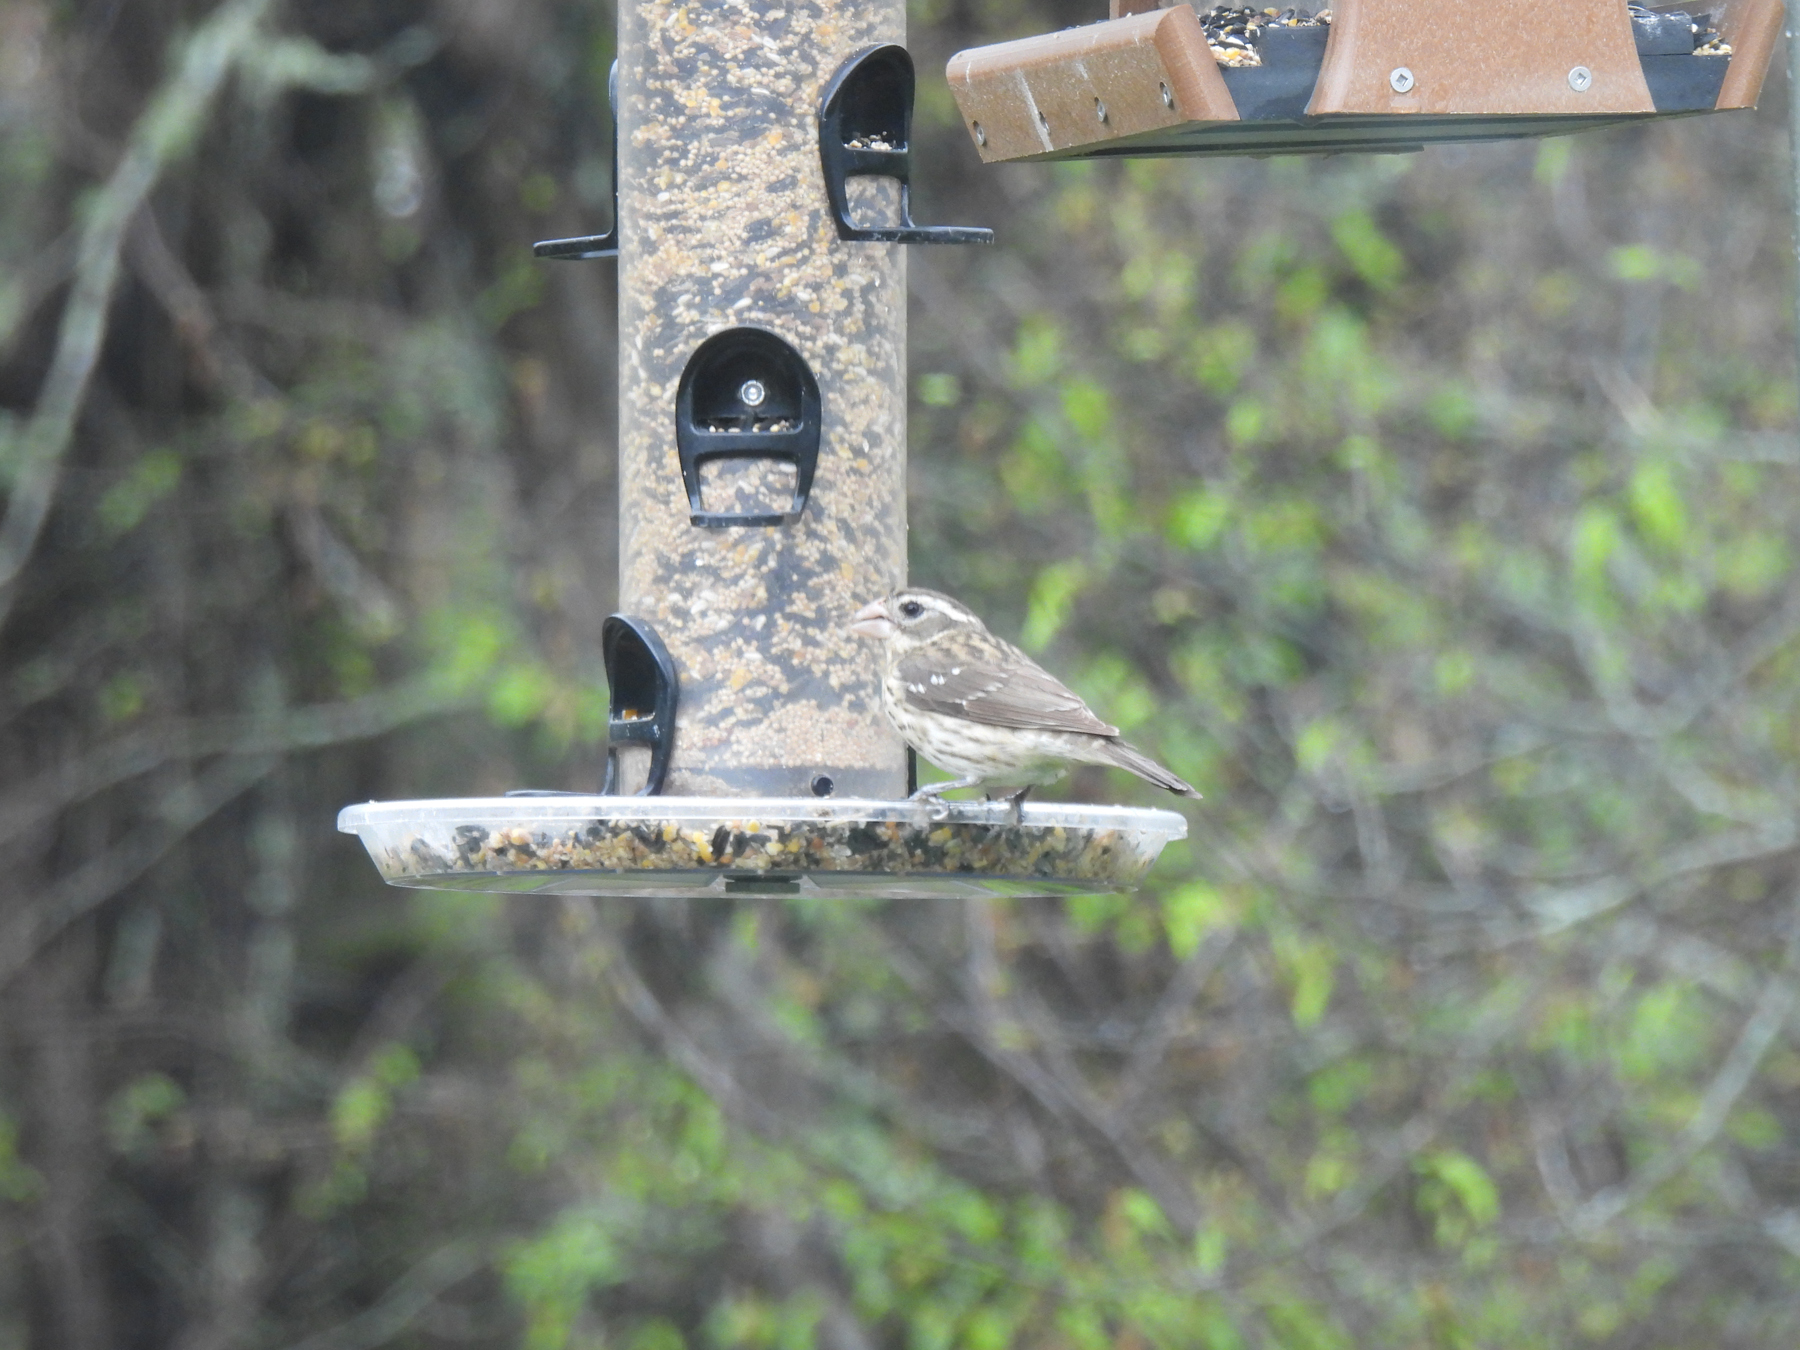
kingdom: Animalia
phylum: Chordata
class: Aves
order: Passeriformes
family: Cardinalidae
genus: Pheucticus
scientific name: Pheucticus ludovicianus
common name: Rose-breasted grosbeak
